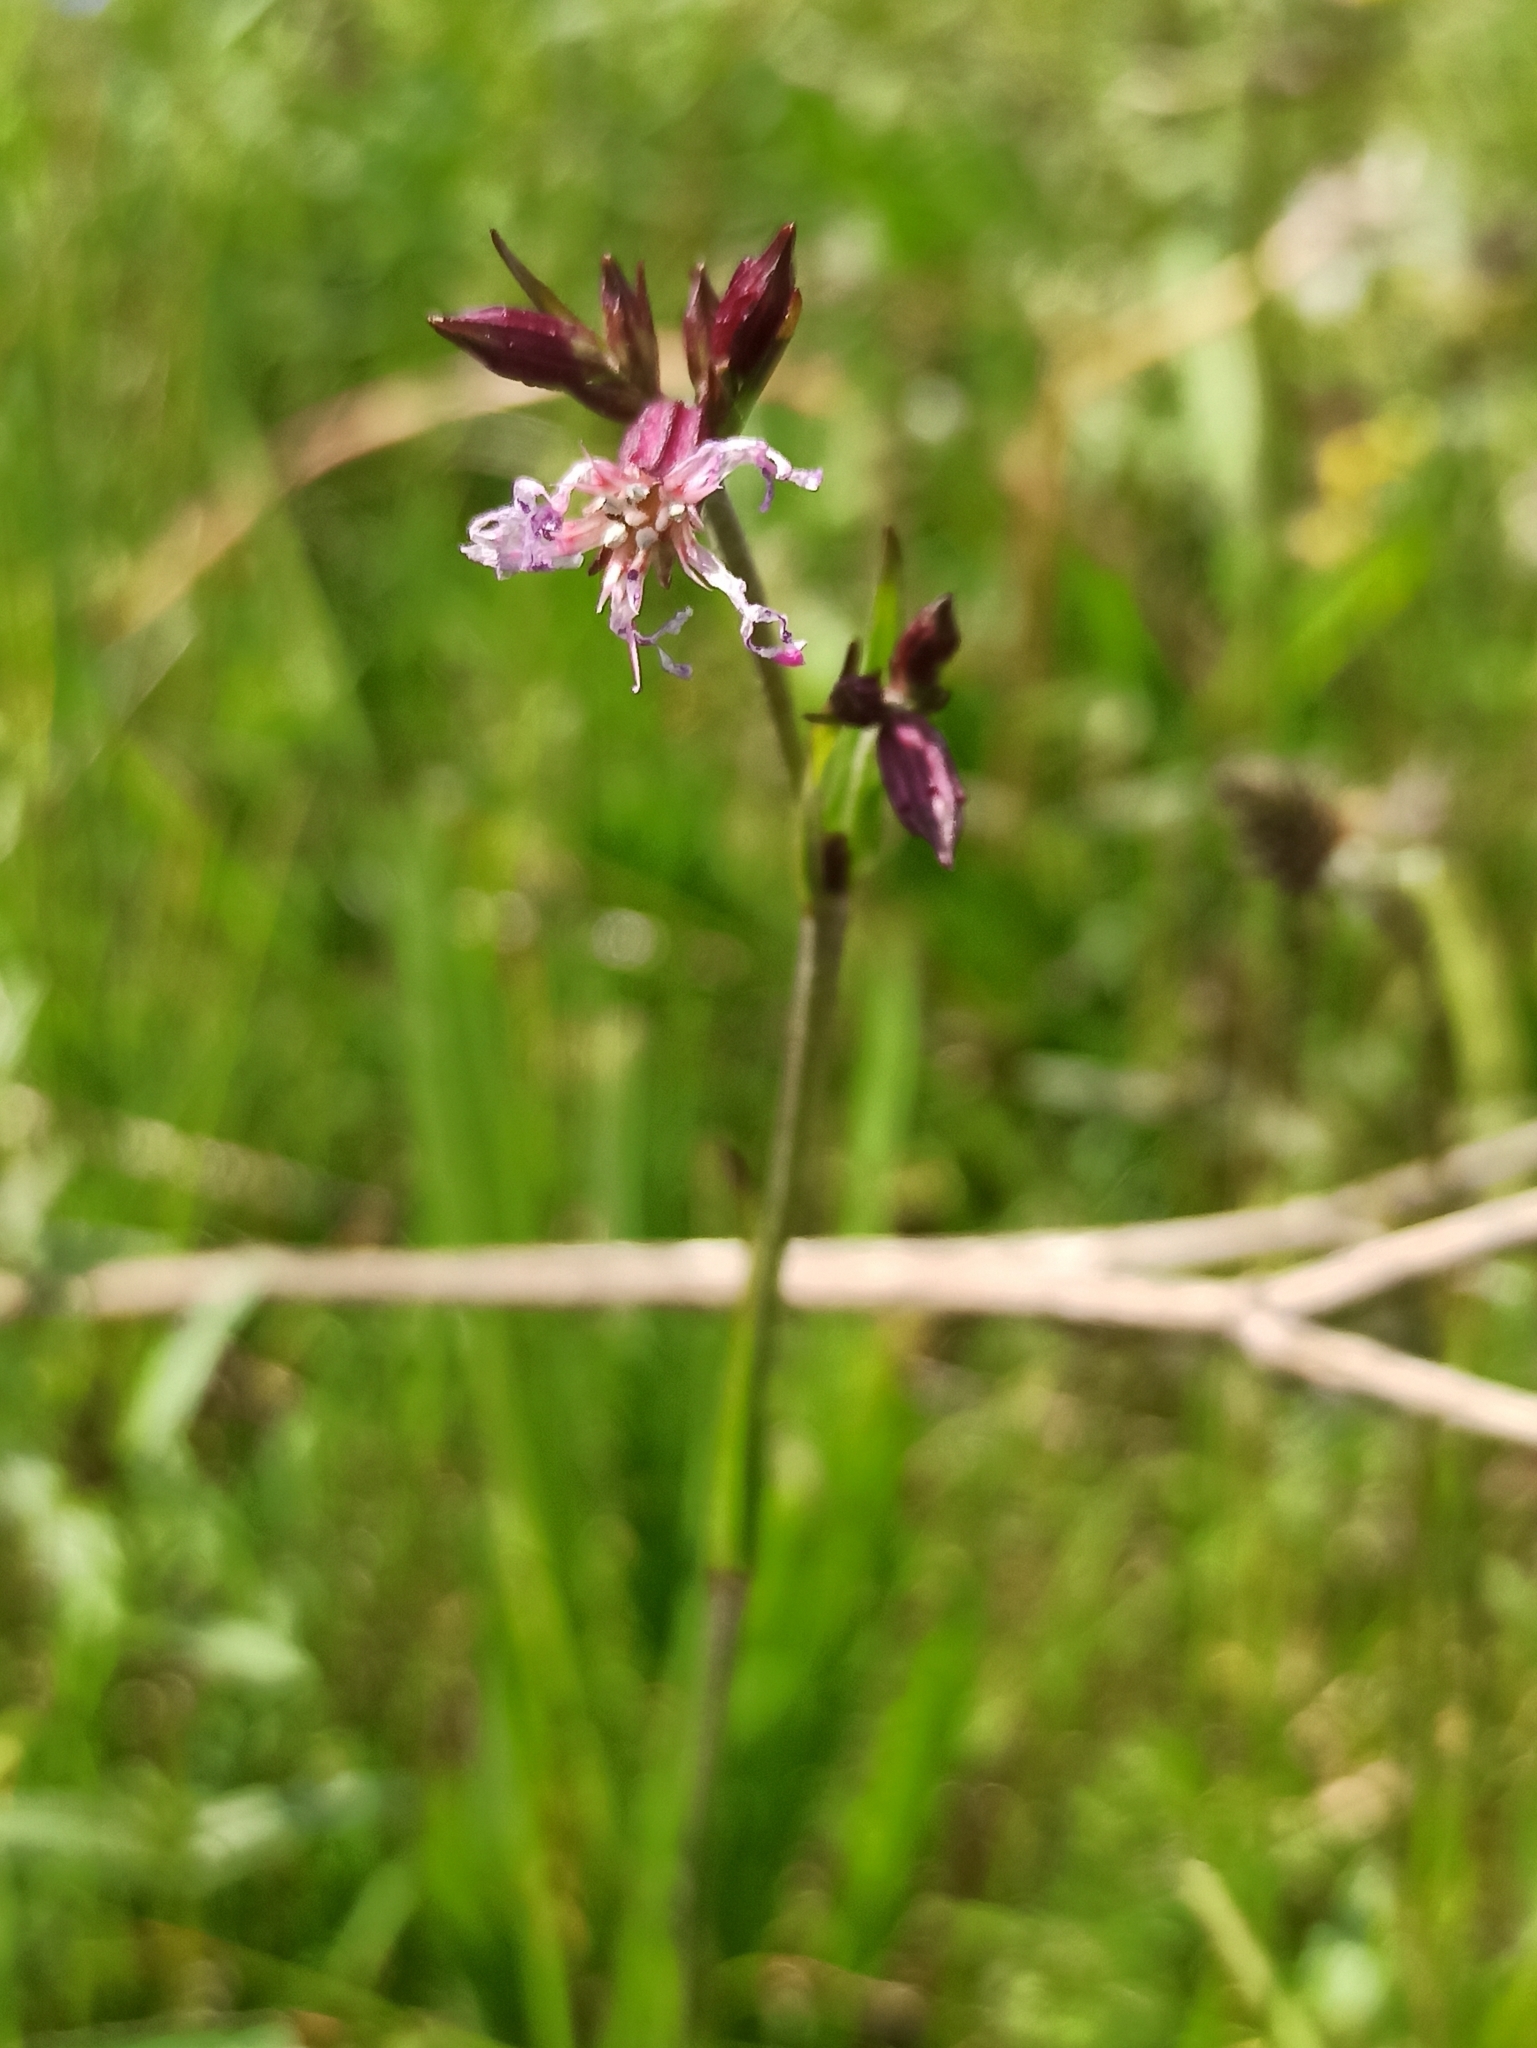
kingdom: Plantae
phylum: Tracheophyta
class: Magnoliopsida
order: Caryophyllales
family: Caryophyllaceae
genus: Silene
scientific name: Silene flos-cuculi
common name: Ragged-robin
